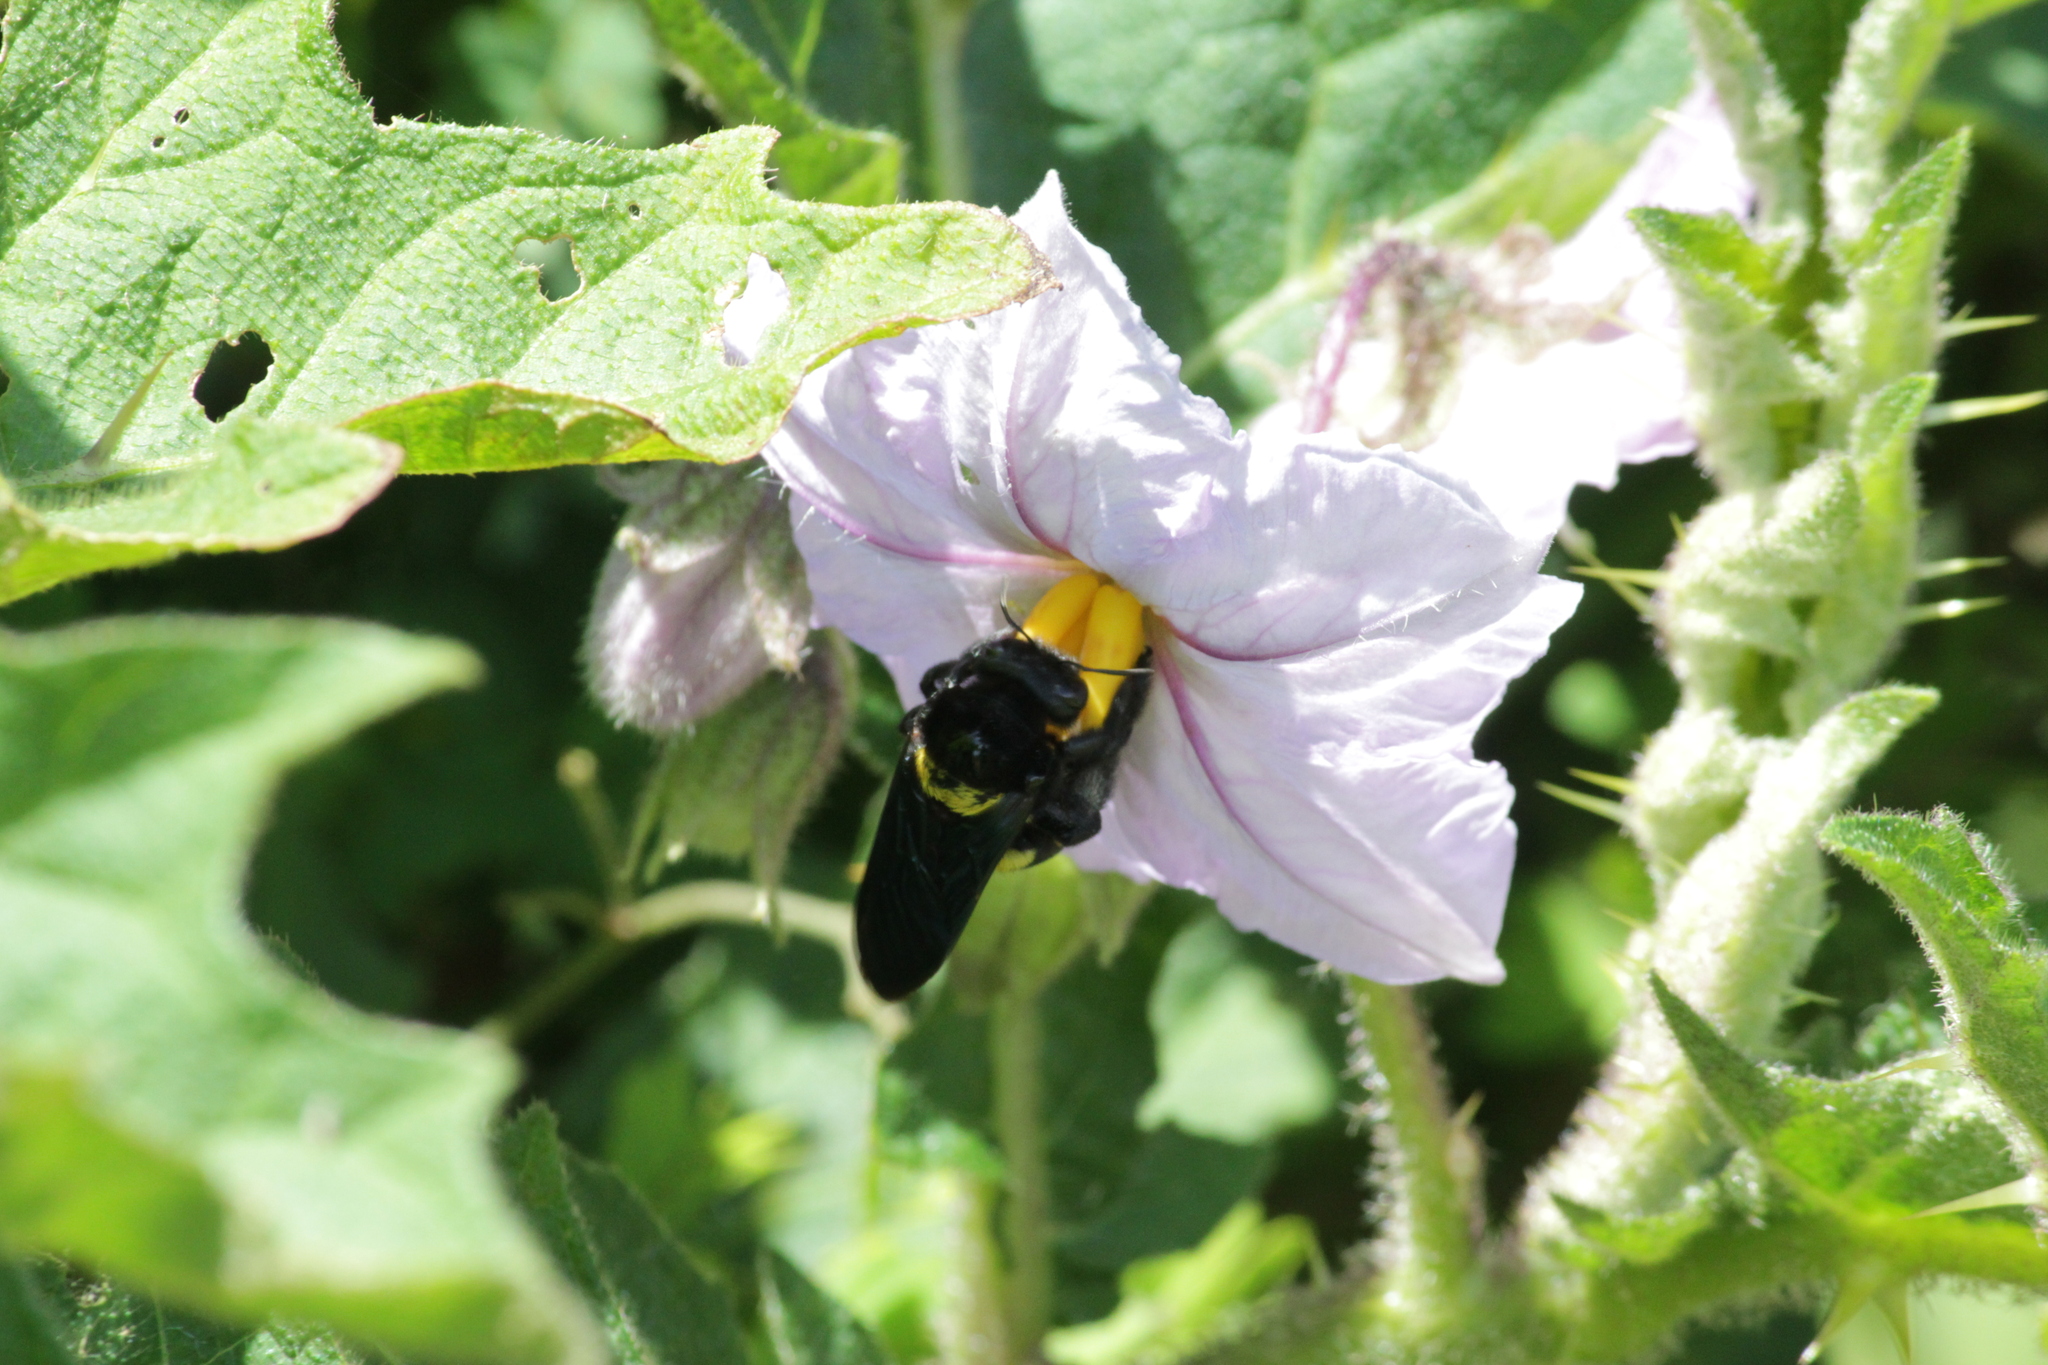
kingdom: Animalia
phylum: Arthropoda
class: Insecta
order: Hymenoptera
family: Apidae
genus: Xylocopa
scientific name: Xylocopa caffra
